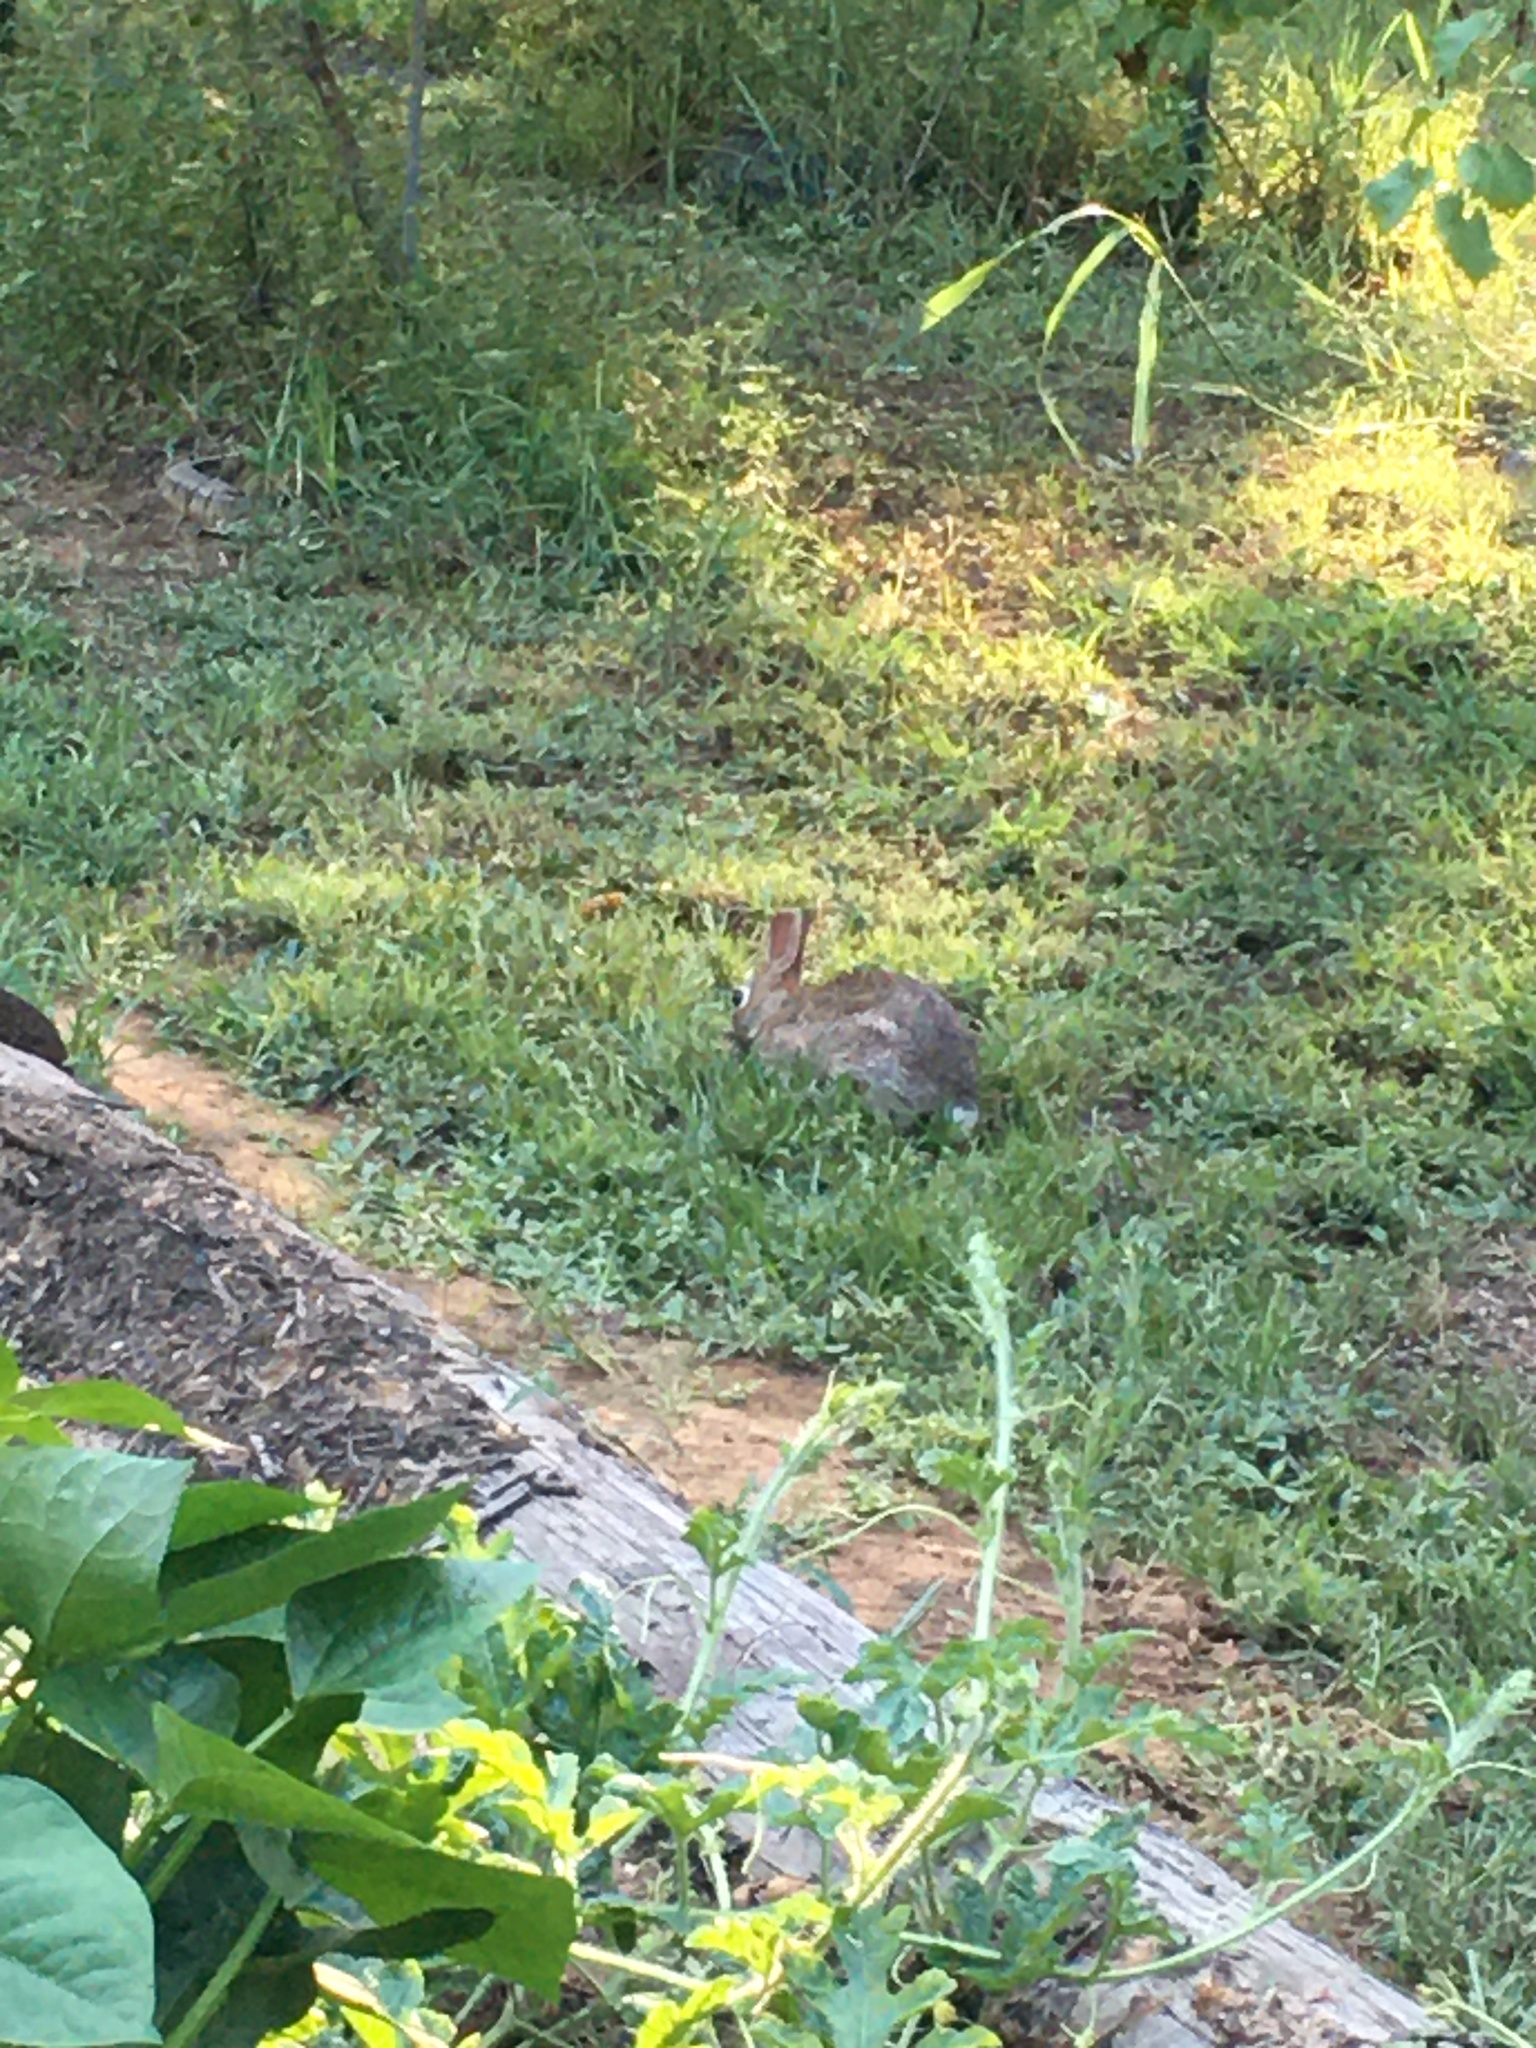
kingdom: Animalia
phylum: Chordata
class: Mammalia
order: Lagomorpha
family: Leporidae
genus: Sylvilagus
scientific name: Sylvilagus floridanus
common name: Eastern cottontail
